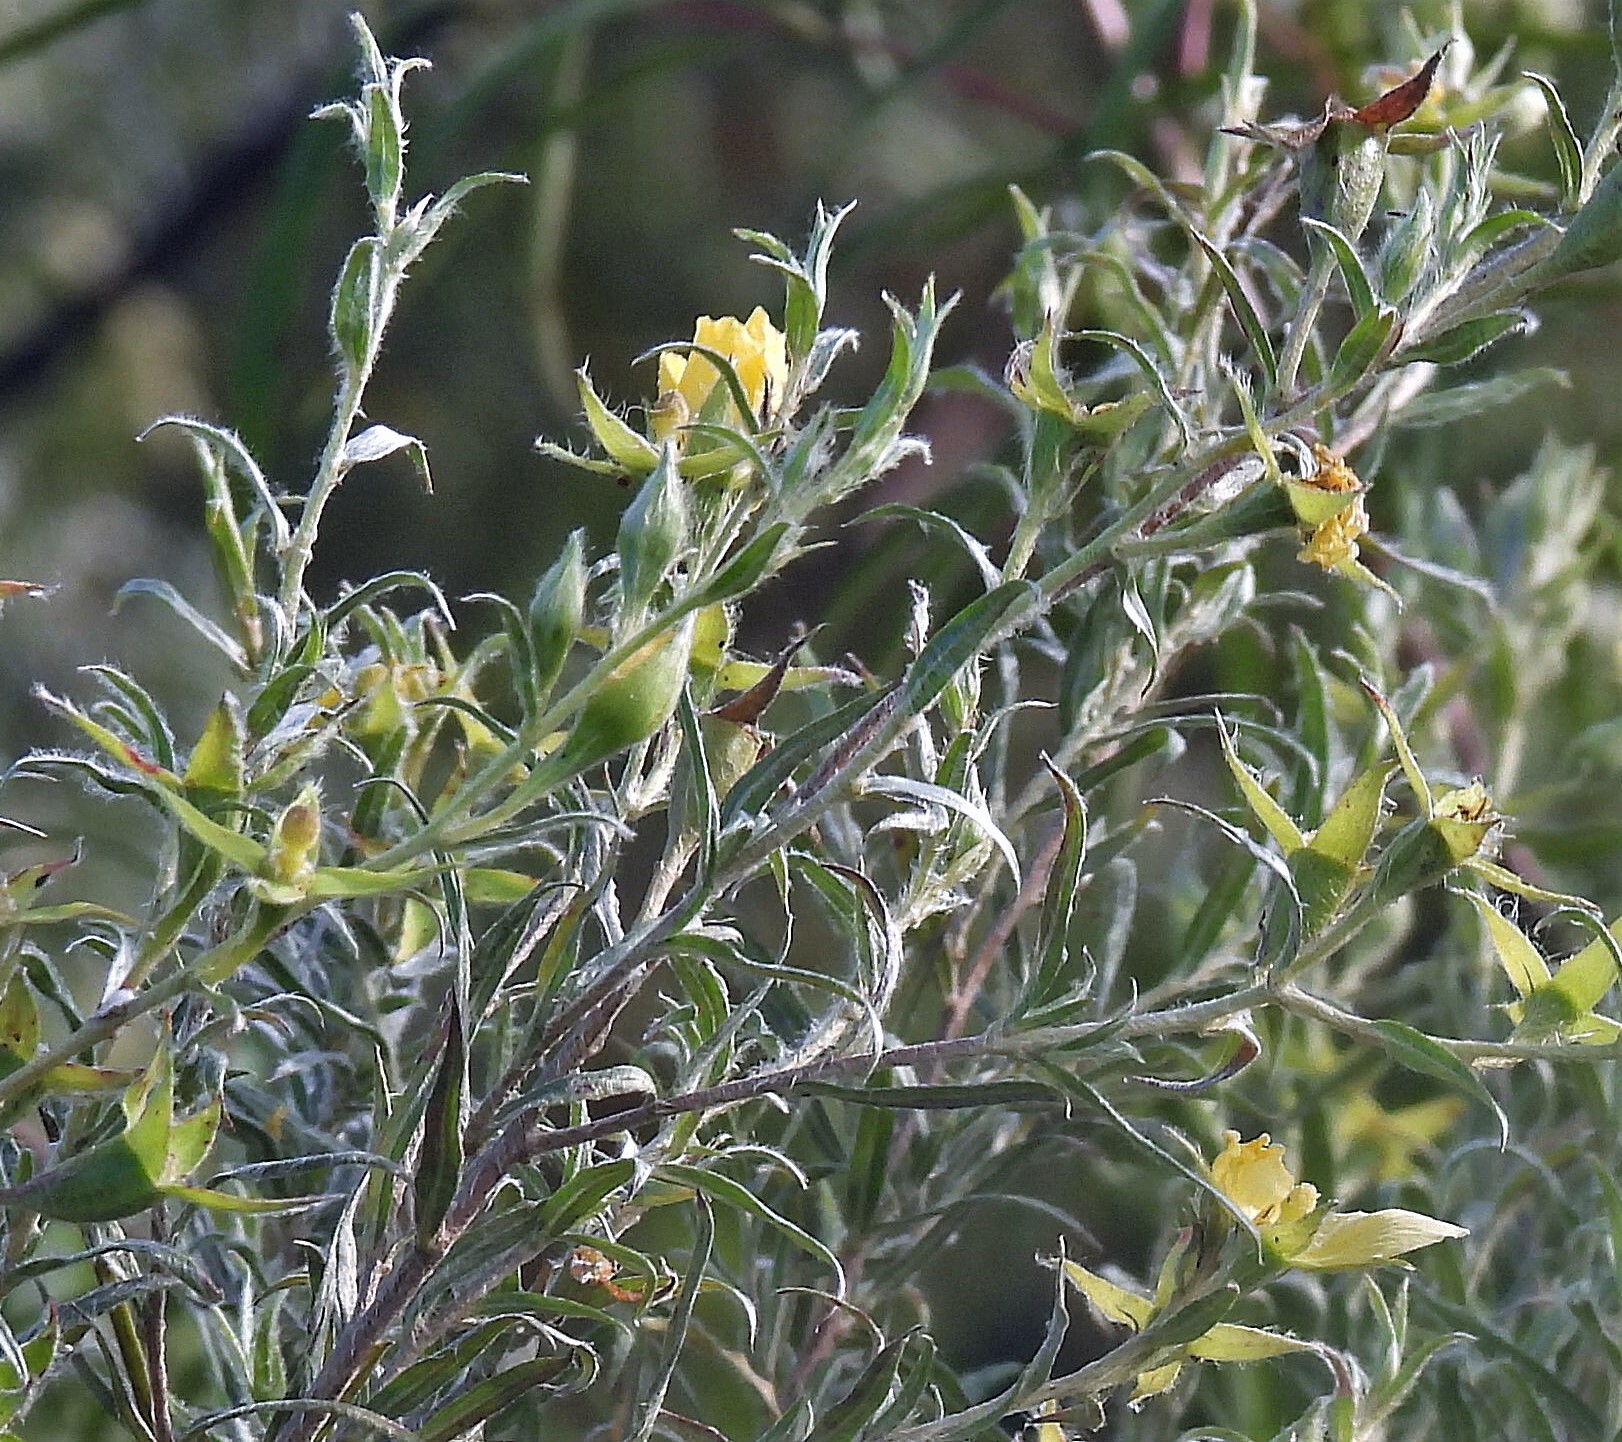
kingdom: Plantae
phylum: Tracheophyta
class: Magnoliopsida
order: Myrtales
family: Onagraceae
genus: Ludwigia
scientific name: Ludwigia sericea
